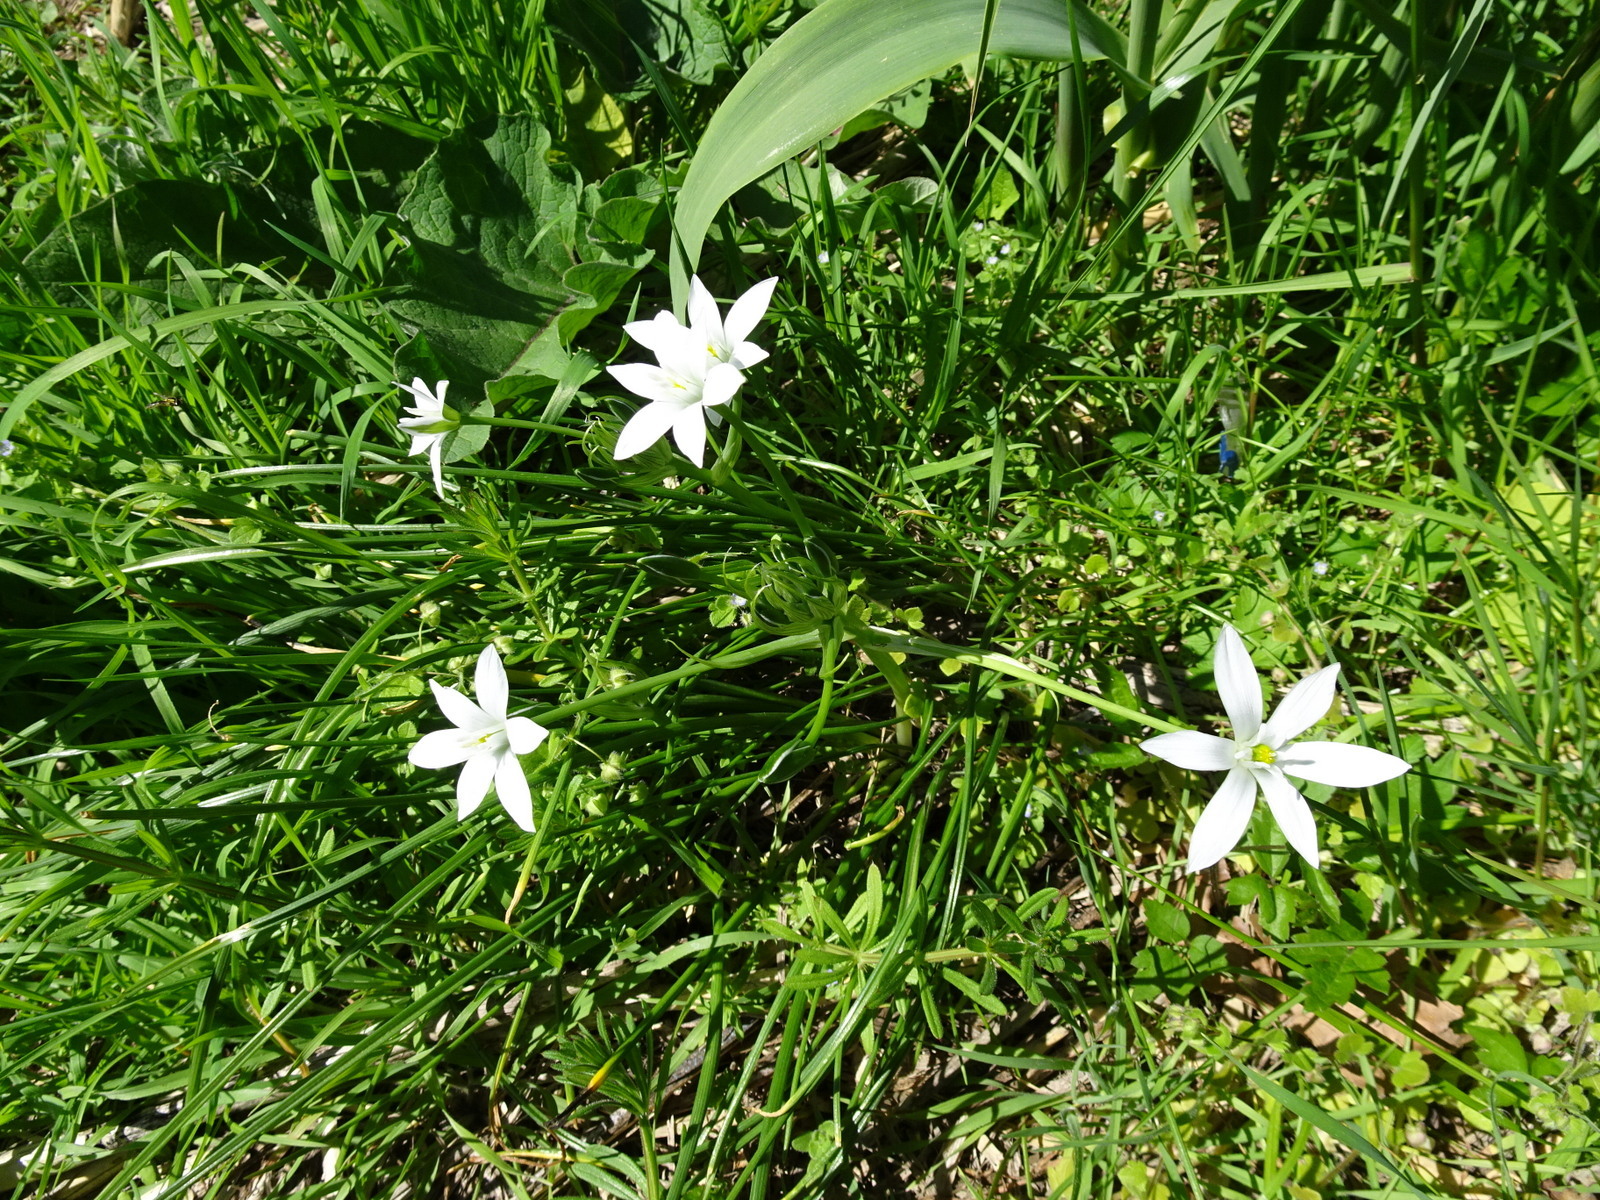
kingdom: Plantae
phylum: Tracheophyta
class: Liliopsida
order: Asparagales
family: Asparagaceae
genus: Ornithogalum
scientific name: Ornithogalum umbellatum
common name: Garden star-of-bethlehem
